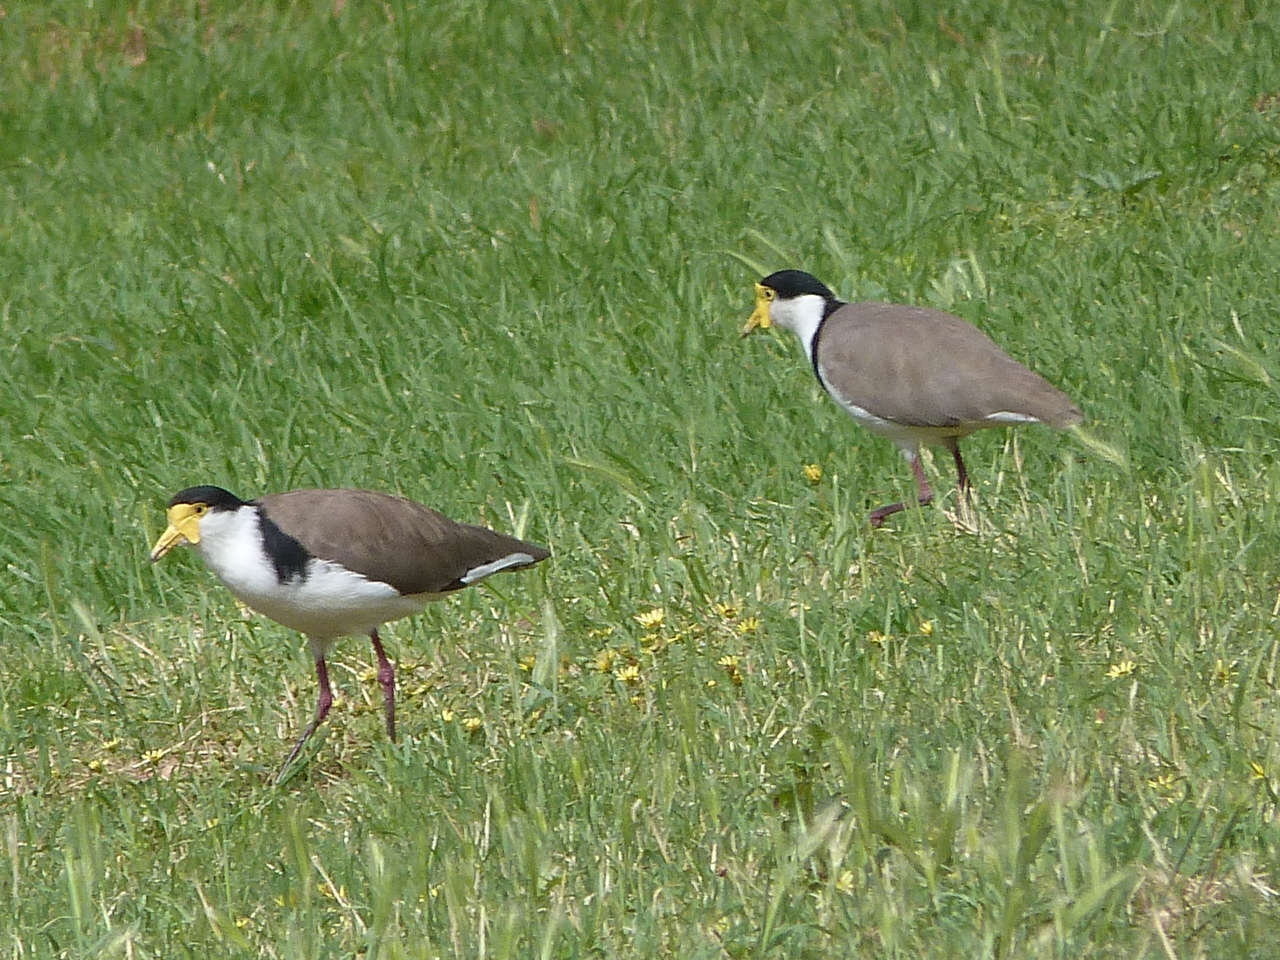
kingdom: Animalia
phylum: Chordata
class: Aves
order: Charadriiformes
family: Charadriidae
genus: Vanellus
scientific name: Vanellus miles
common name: Masked lapwing
